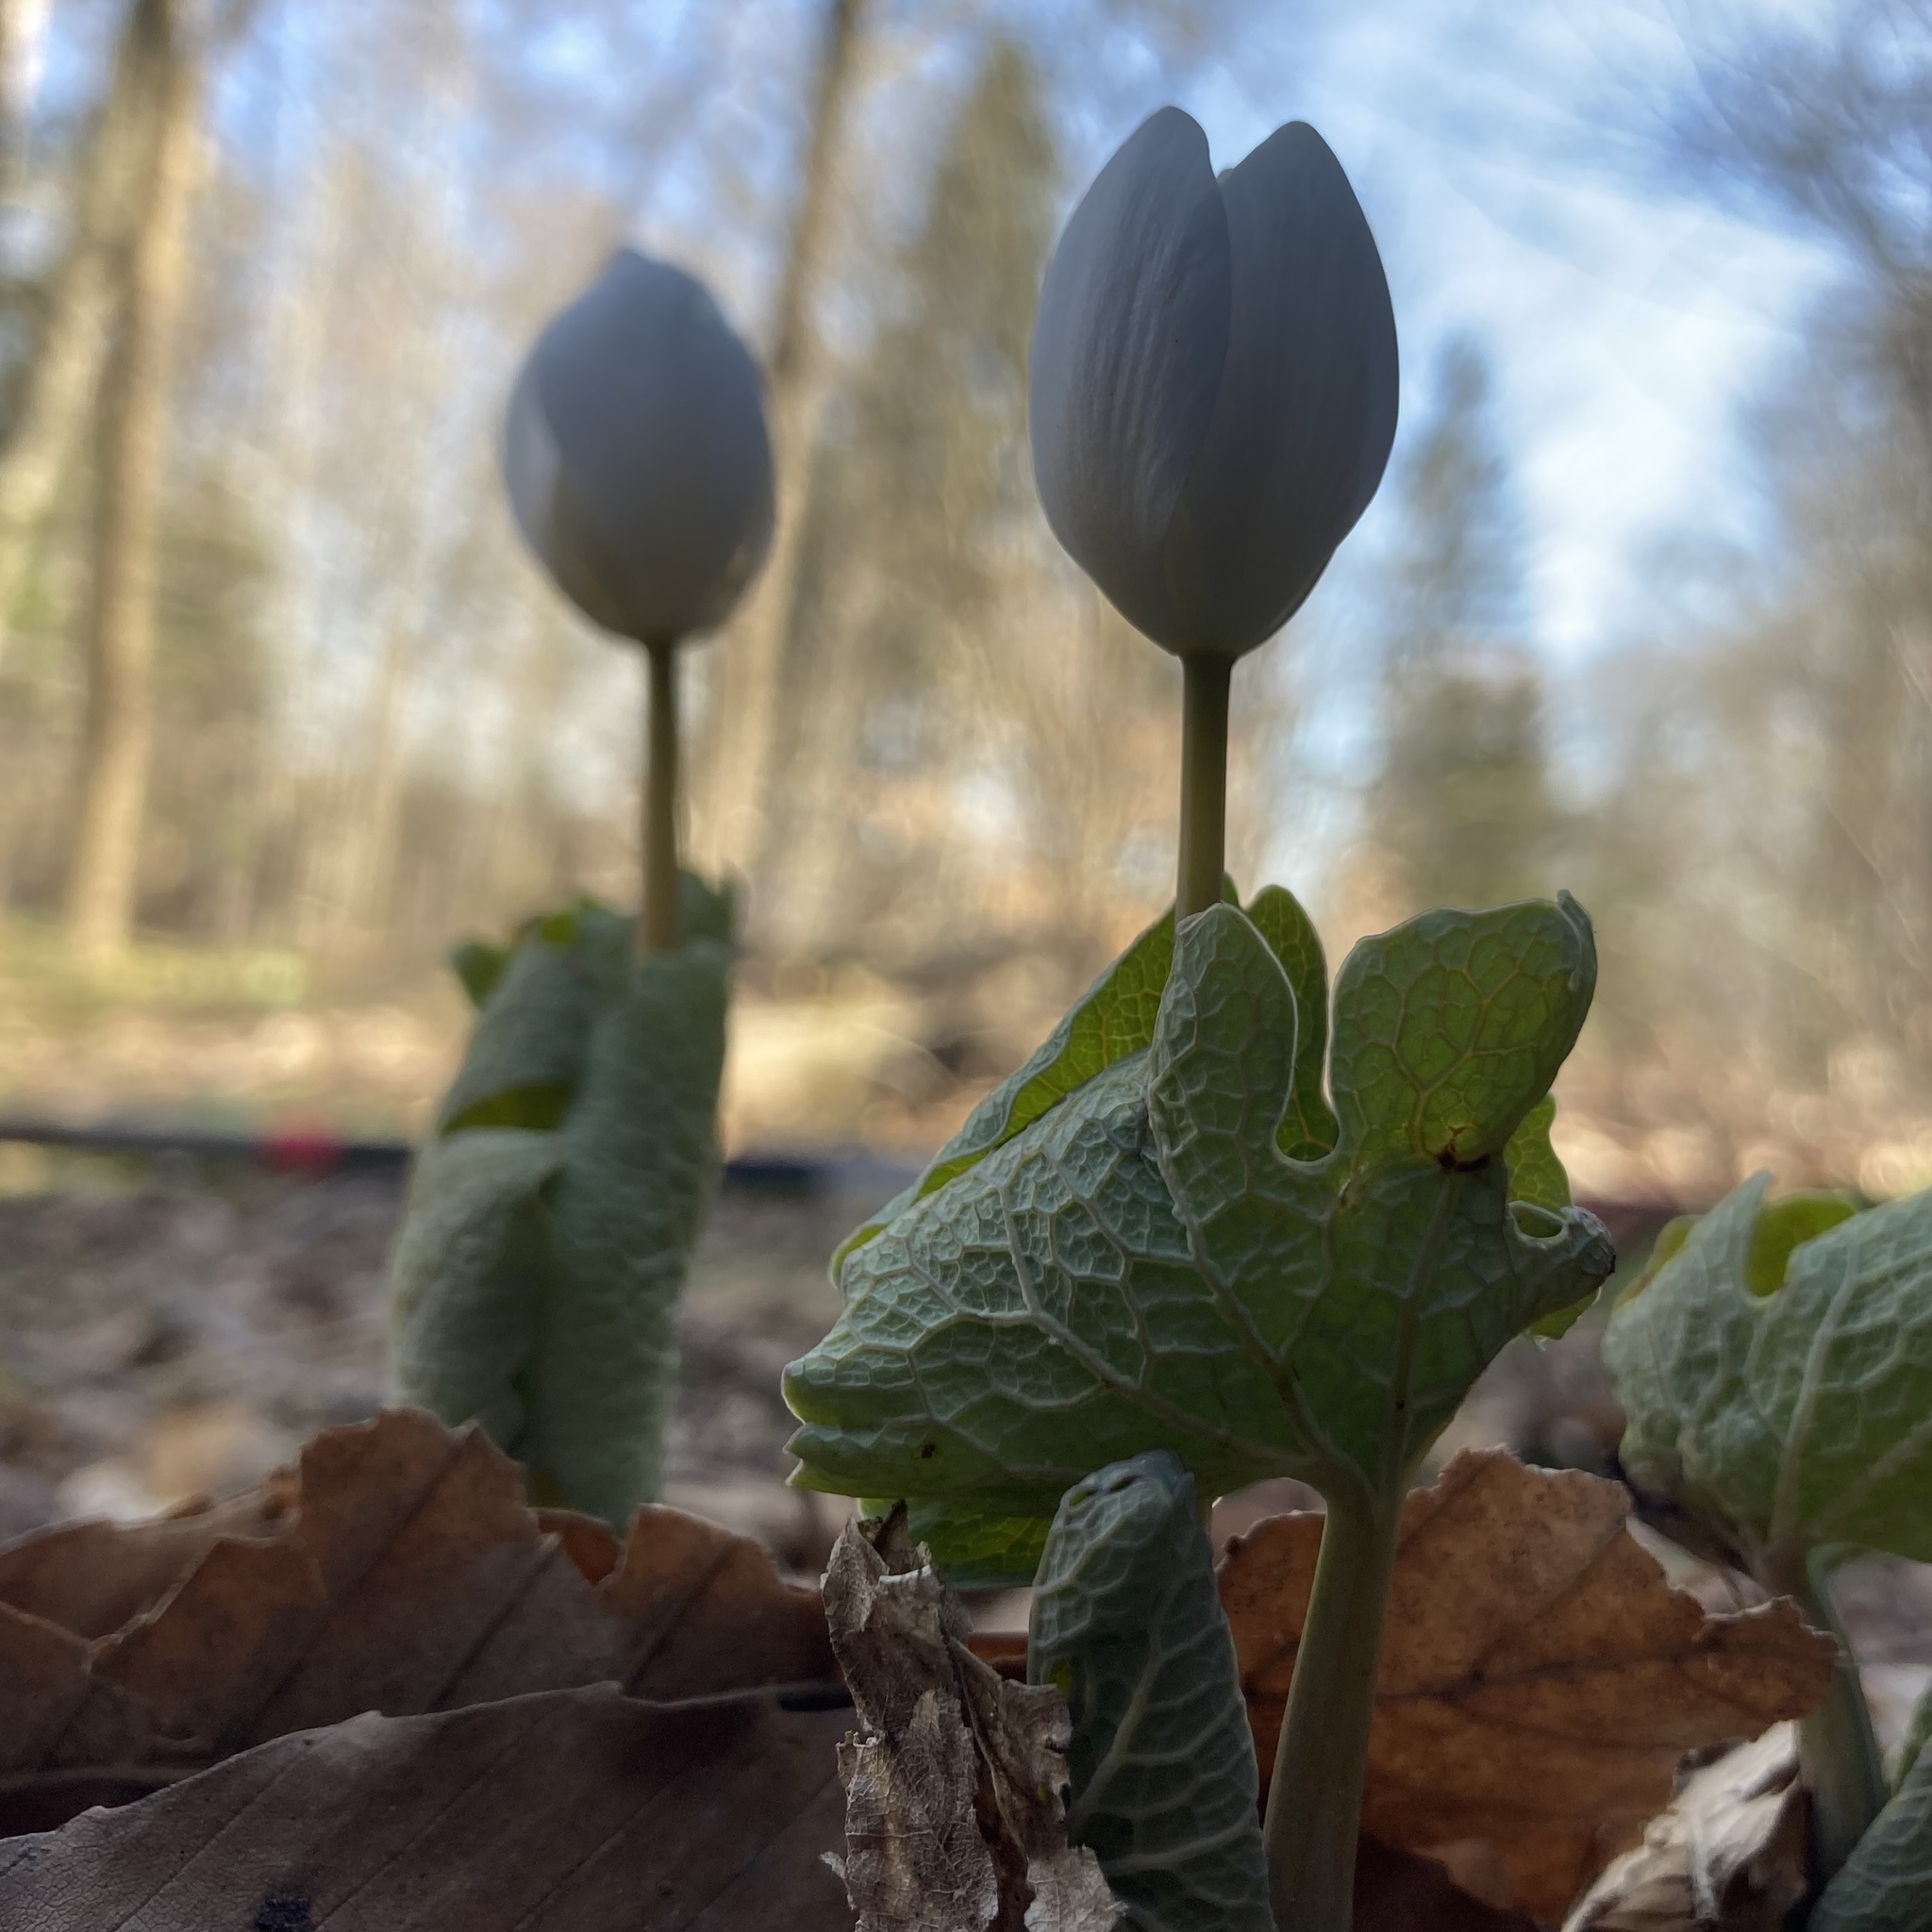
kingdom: Plantae
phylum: Tracheophyta
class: Magnoliopsida
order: Ranunculales
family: Papaveraceae
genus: Sanguinaria
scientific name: Sanguinaria canadensis
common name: Bloodroot
